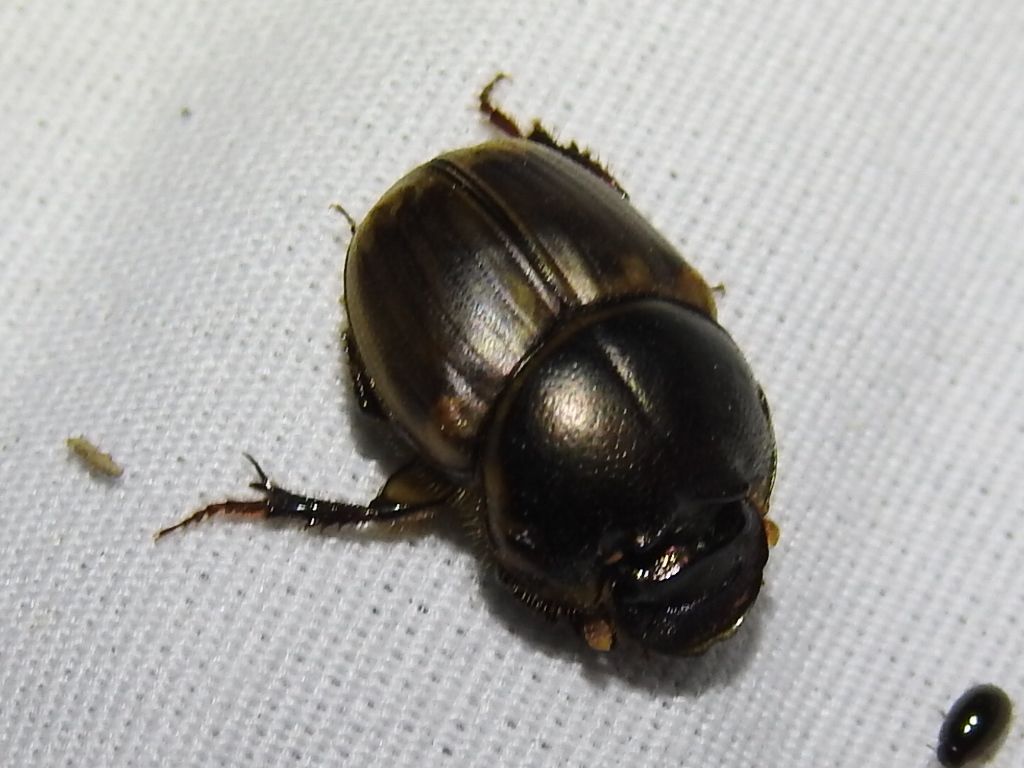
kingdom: Animalia
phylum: Arthropoda
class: Insecta
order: Coleoptera
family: Scarabaeidae
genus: Digitonthophagus
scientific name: Digitonthophagus gazella
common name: Brown dung beetle
